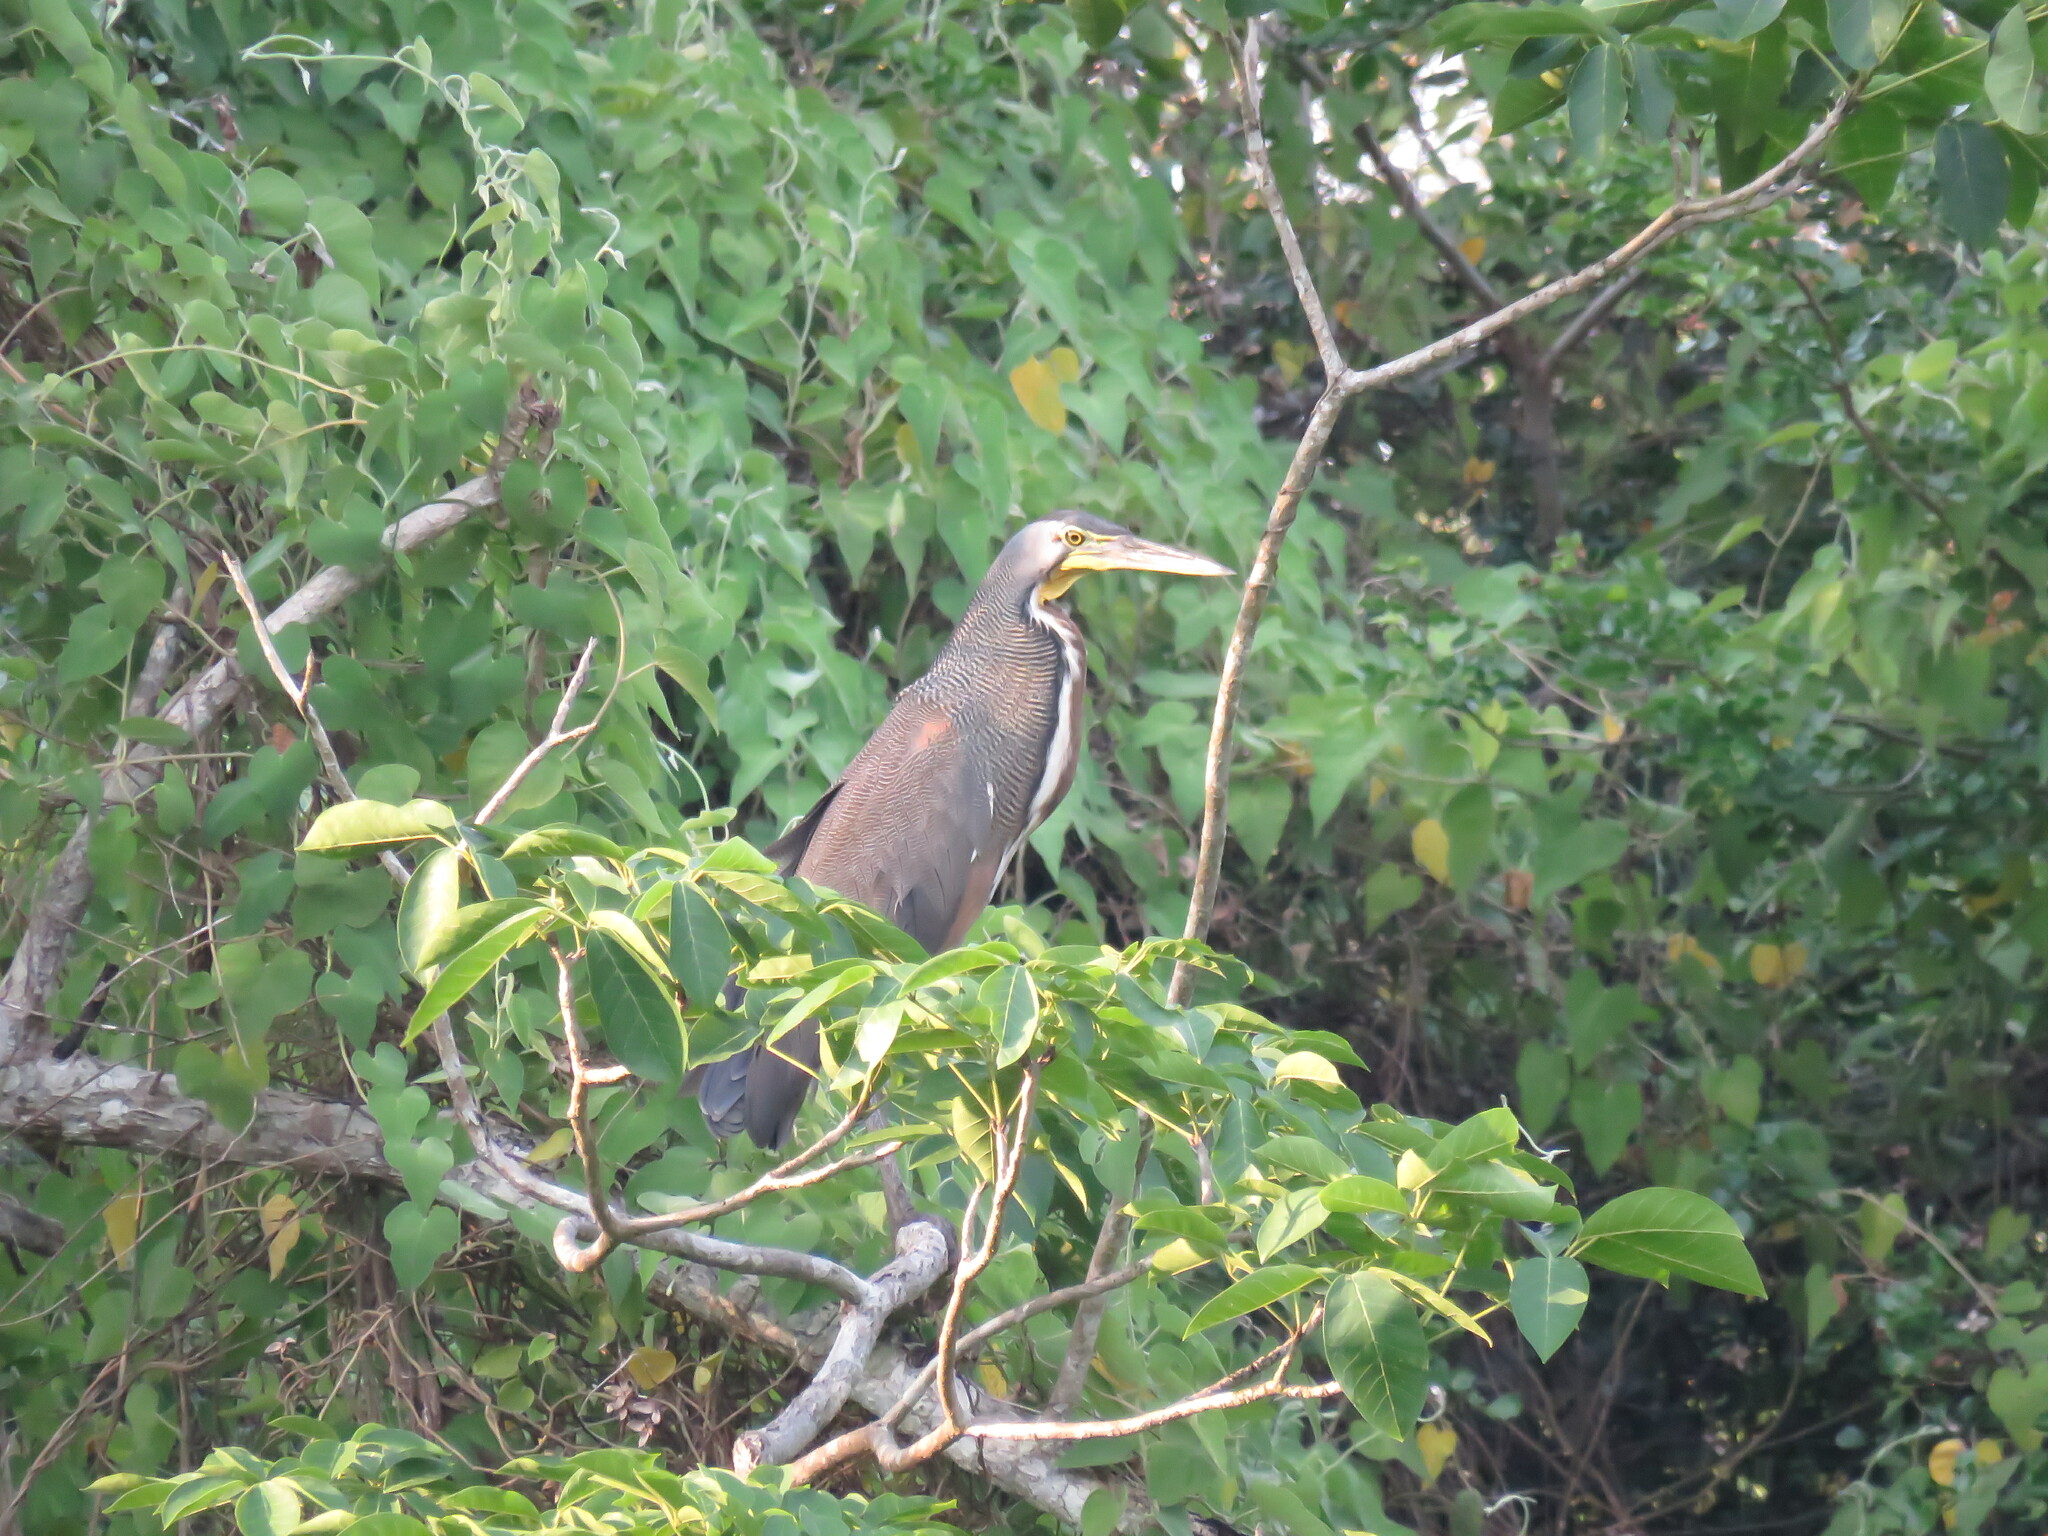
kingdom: Animalia
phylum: Chordata
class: Aves
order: Pelecaniformes
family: Ardeidae
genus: Tigrisoma
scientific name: Tigrisoma mexicanum
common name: Bare-throated tiger-heron
